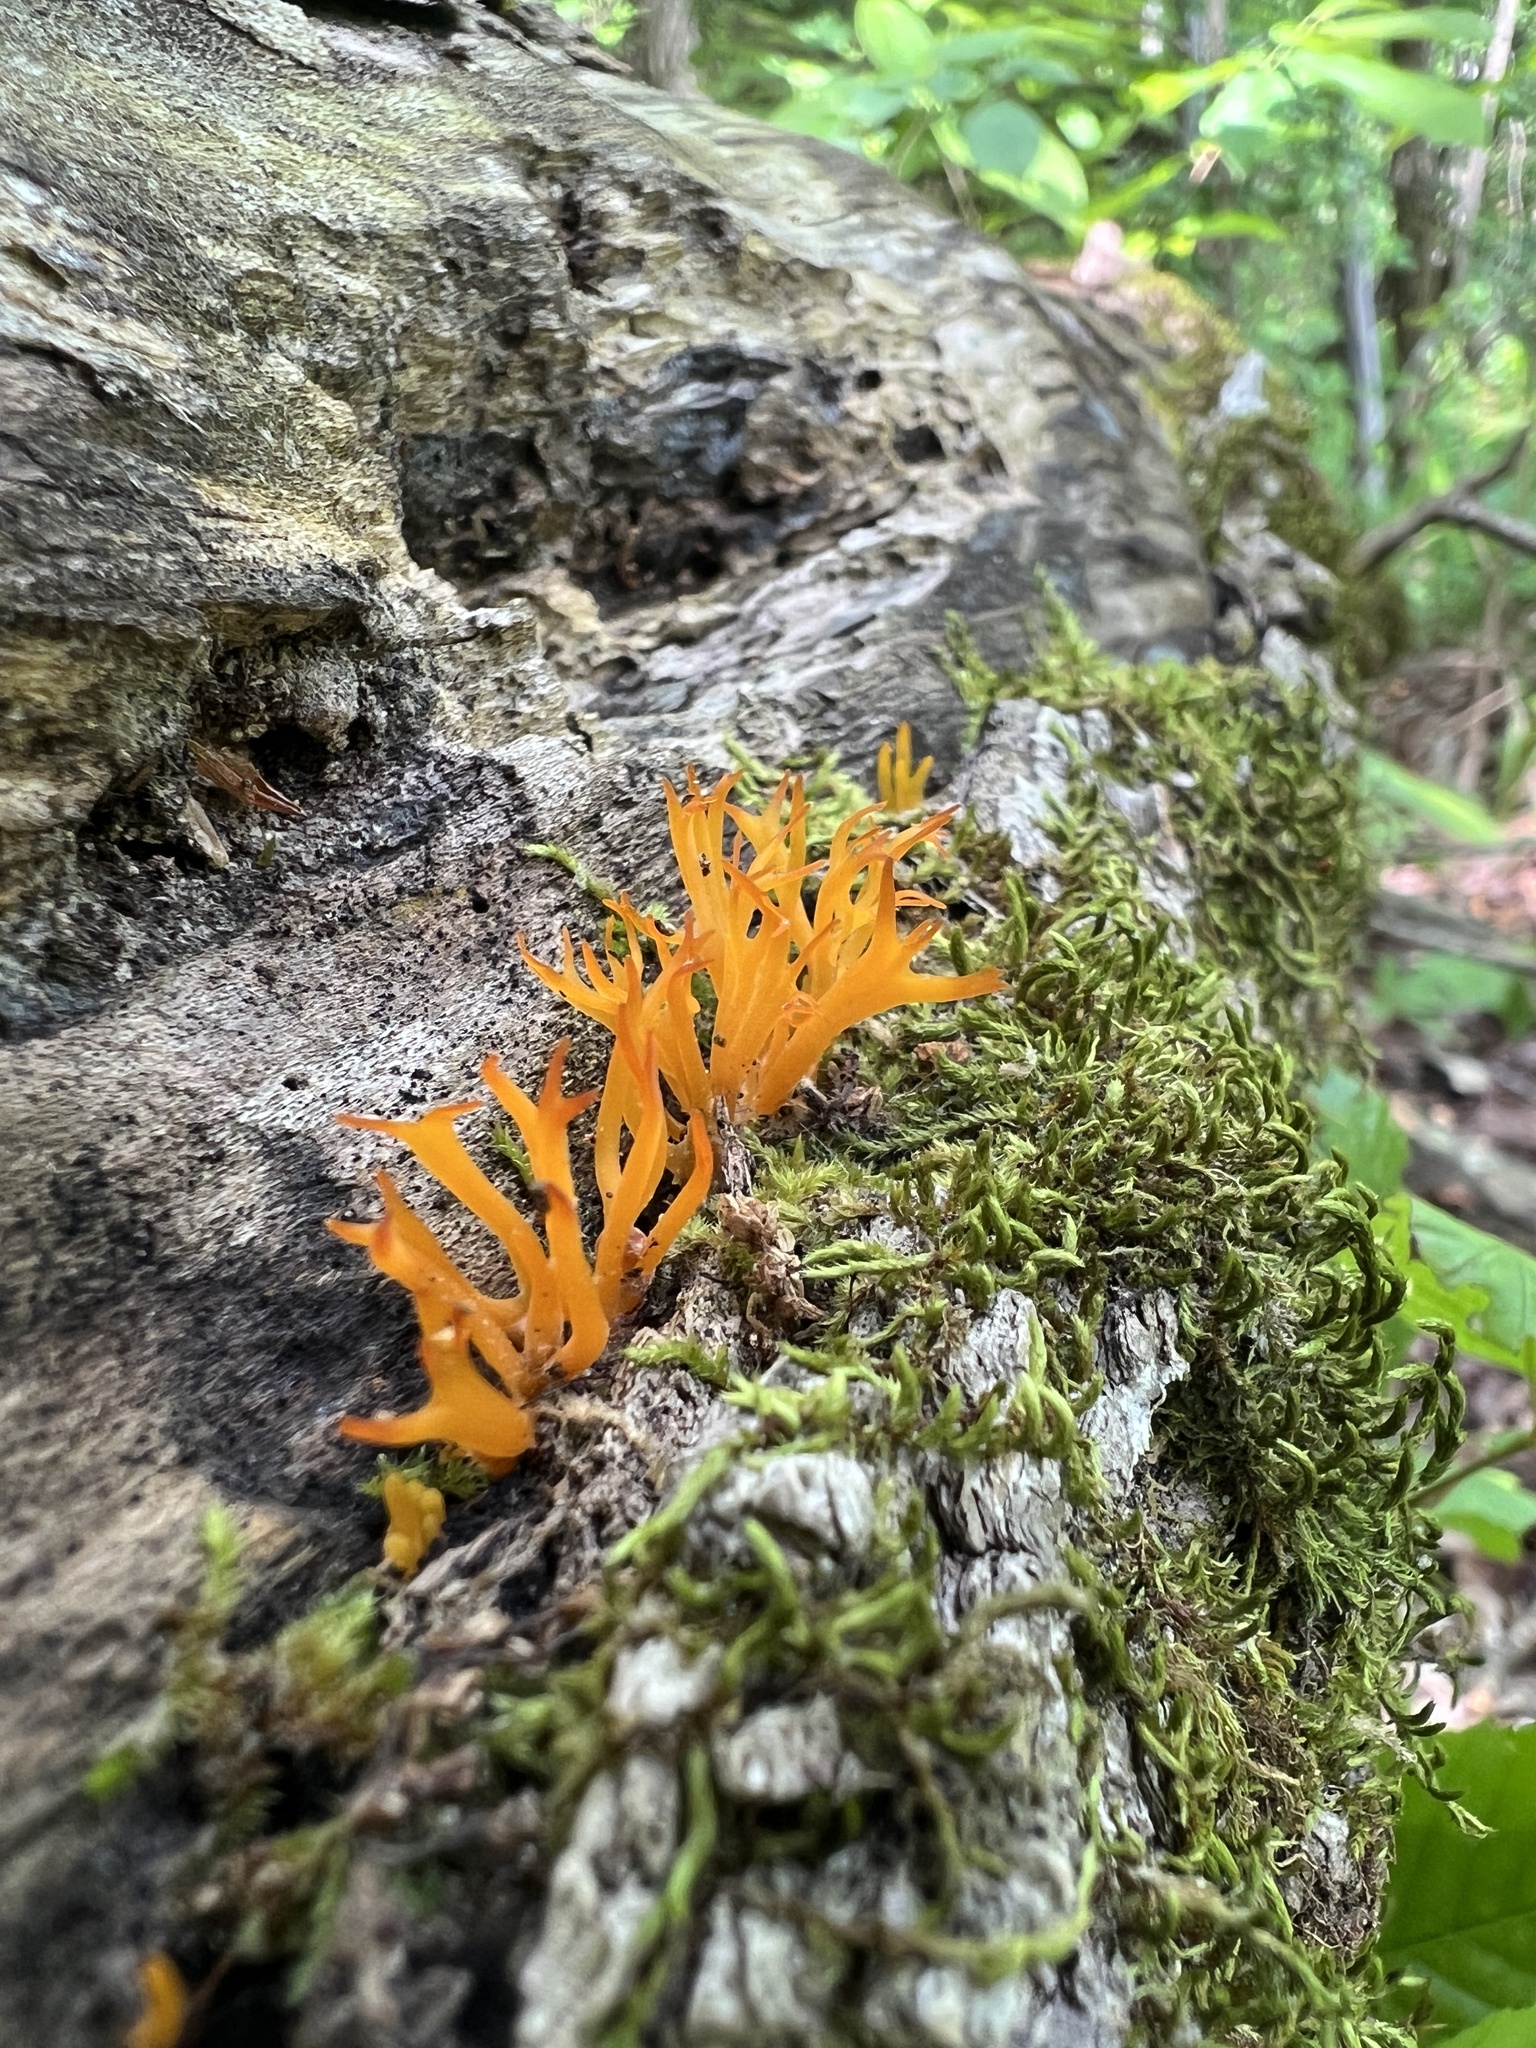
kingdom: Fungi
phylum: Basidiomycota
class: Dacrymycetes
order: Dacrymycetales
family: Dacrymycetaceae
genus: Calocera
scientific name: Calocera cornea
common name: Small stagshorn
